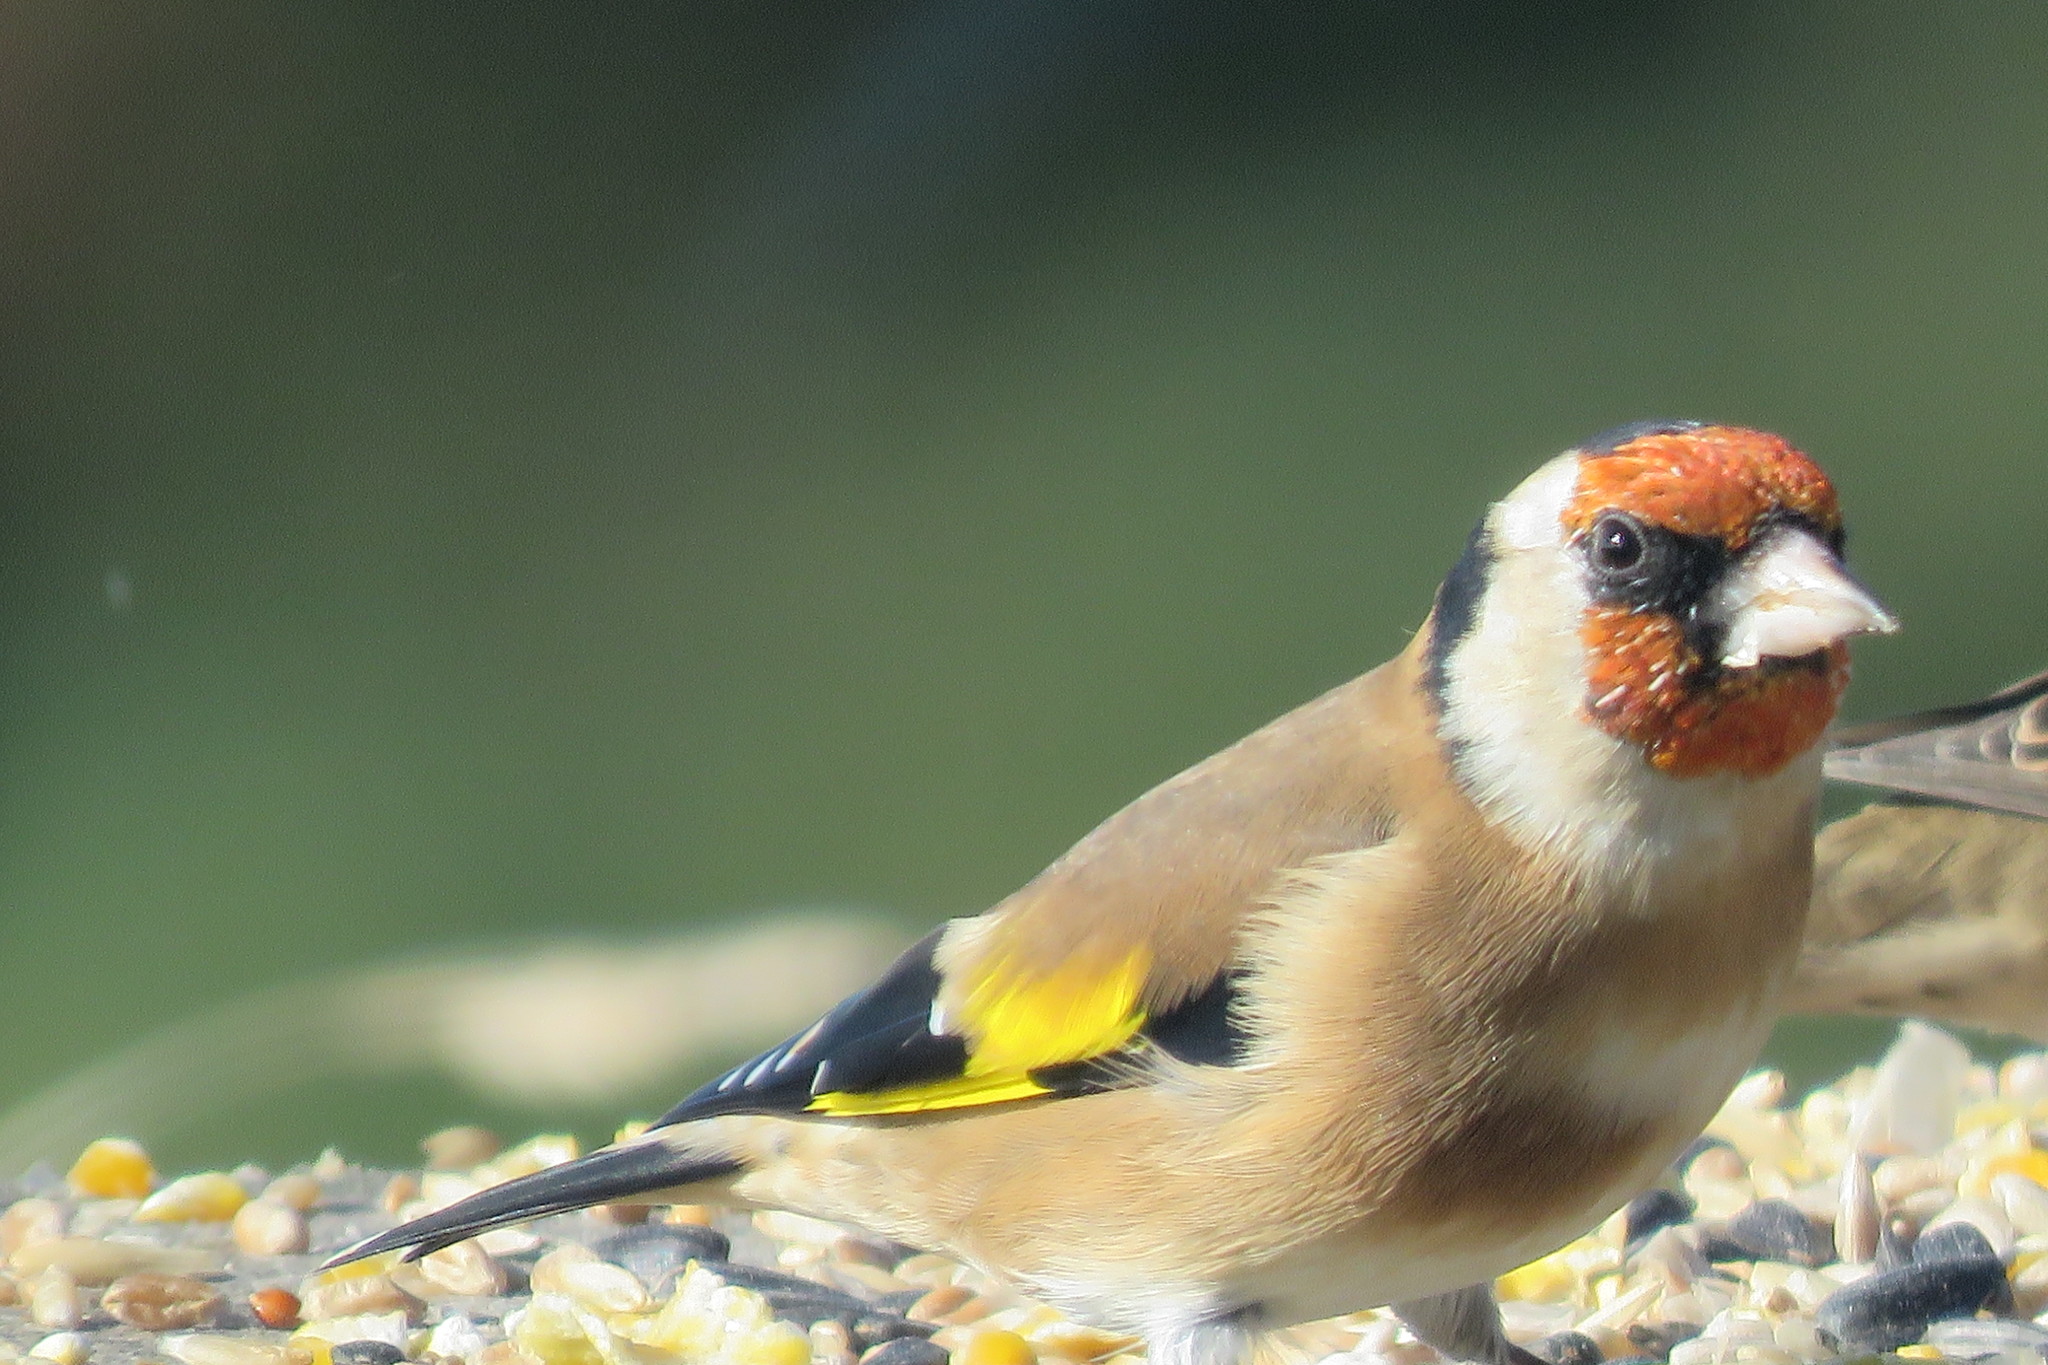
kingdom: Animalia
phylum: Chordata
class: Aves
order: Passeriformes
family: Fringillidae
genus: Carduelis
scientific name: Carduelis carduelis
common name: European goldfinch
